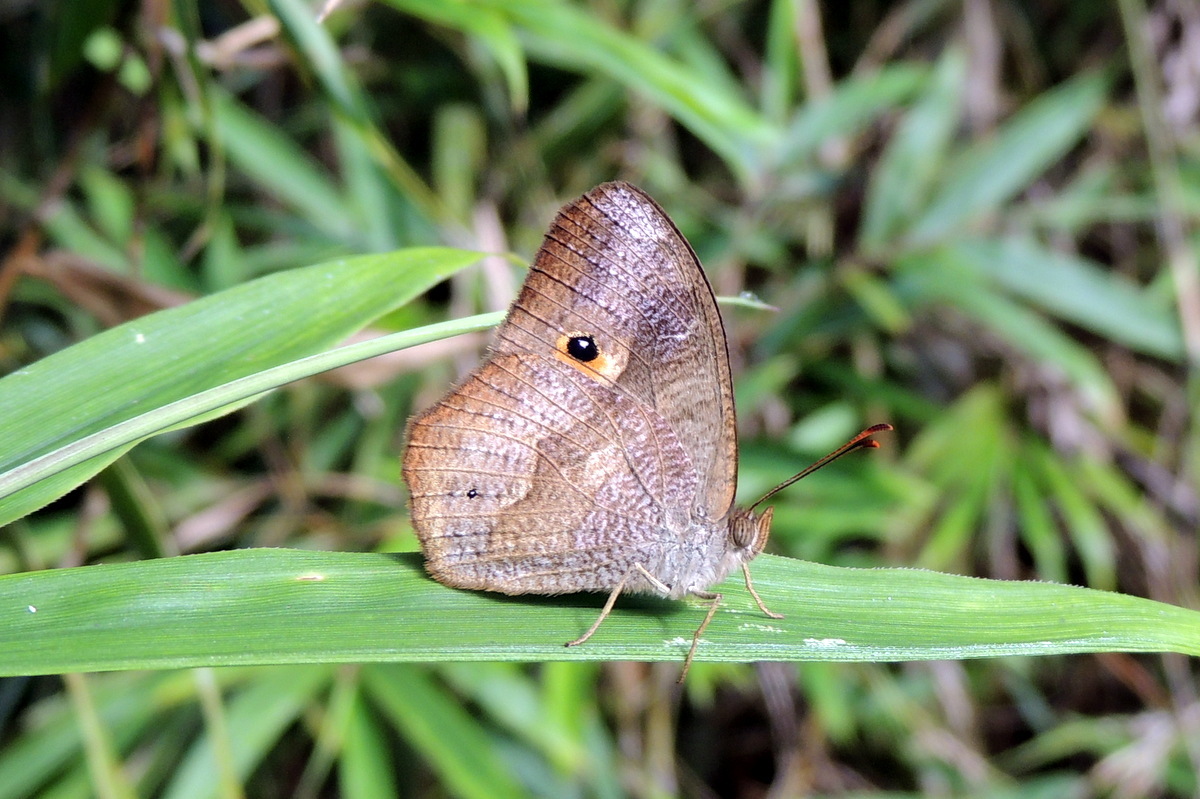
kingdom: Animalia
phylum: Arthropoda
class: Insecta
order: Lepidoptera
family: Nymphalidae
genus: Heteropsis
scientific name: Heteropsis parva
